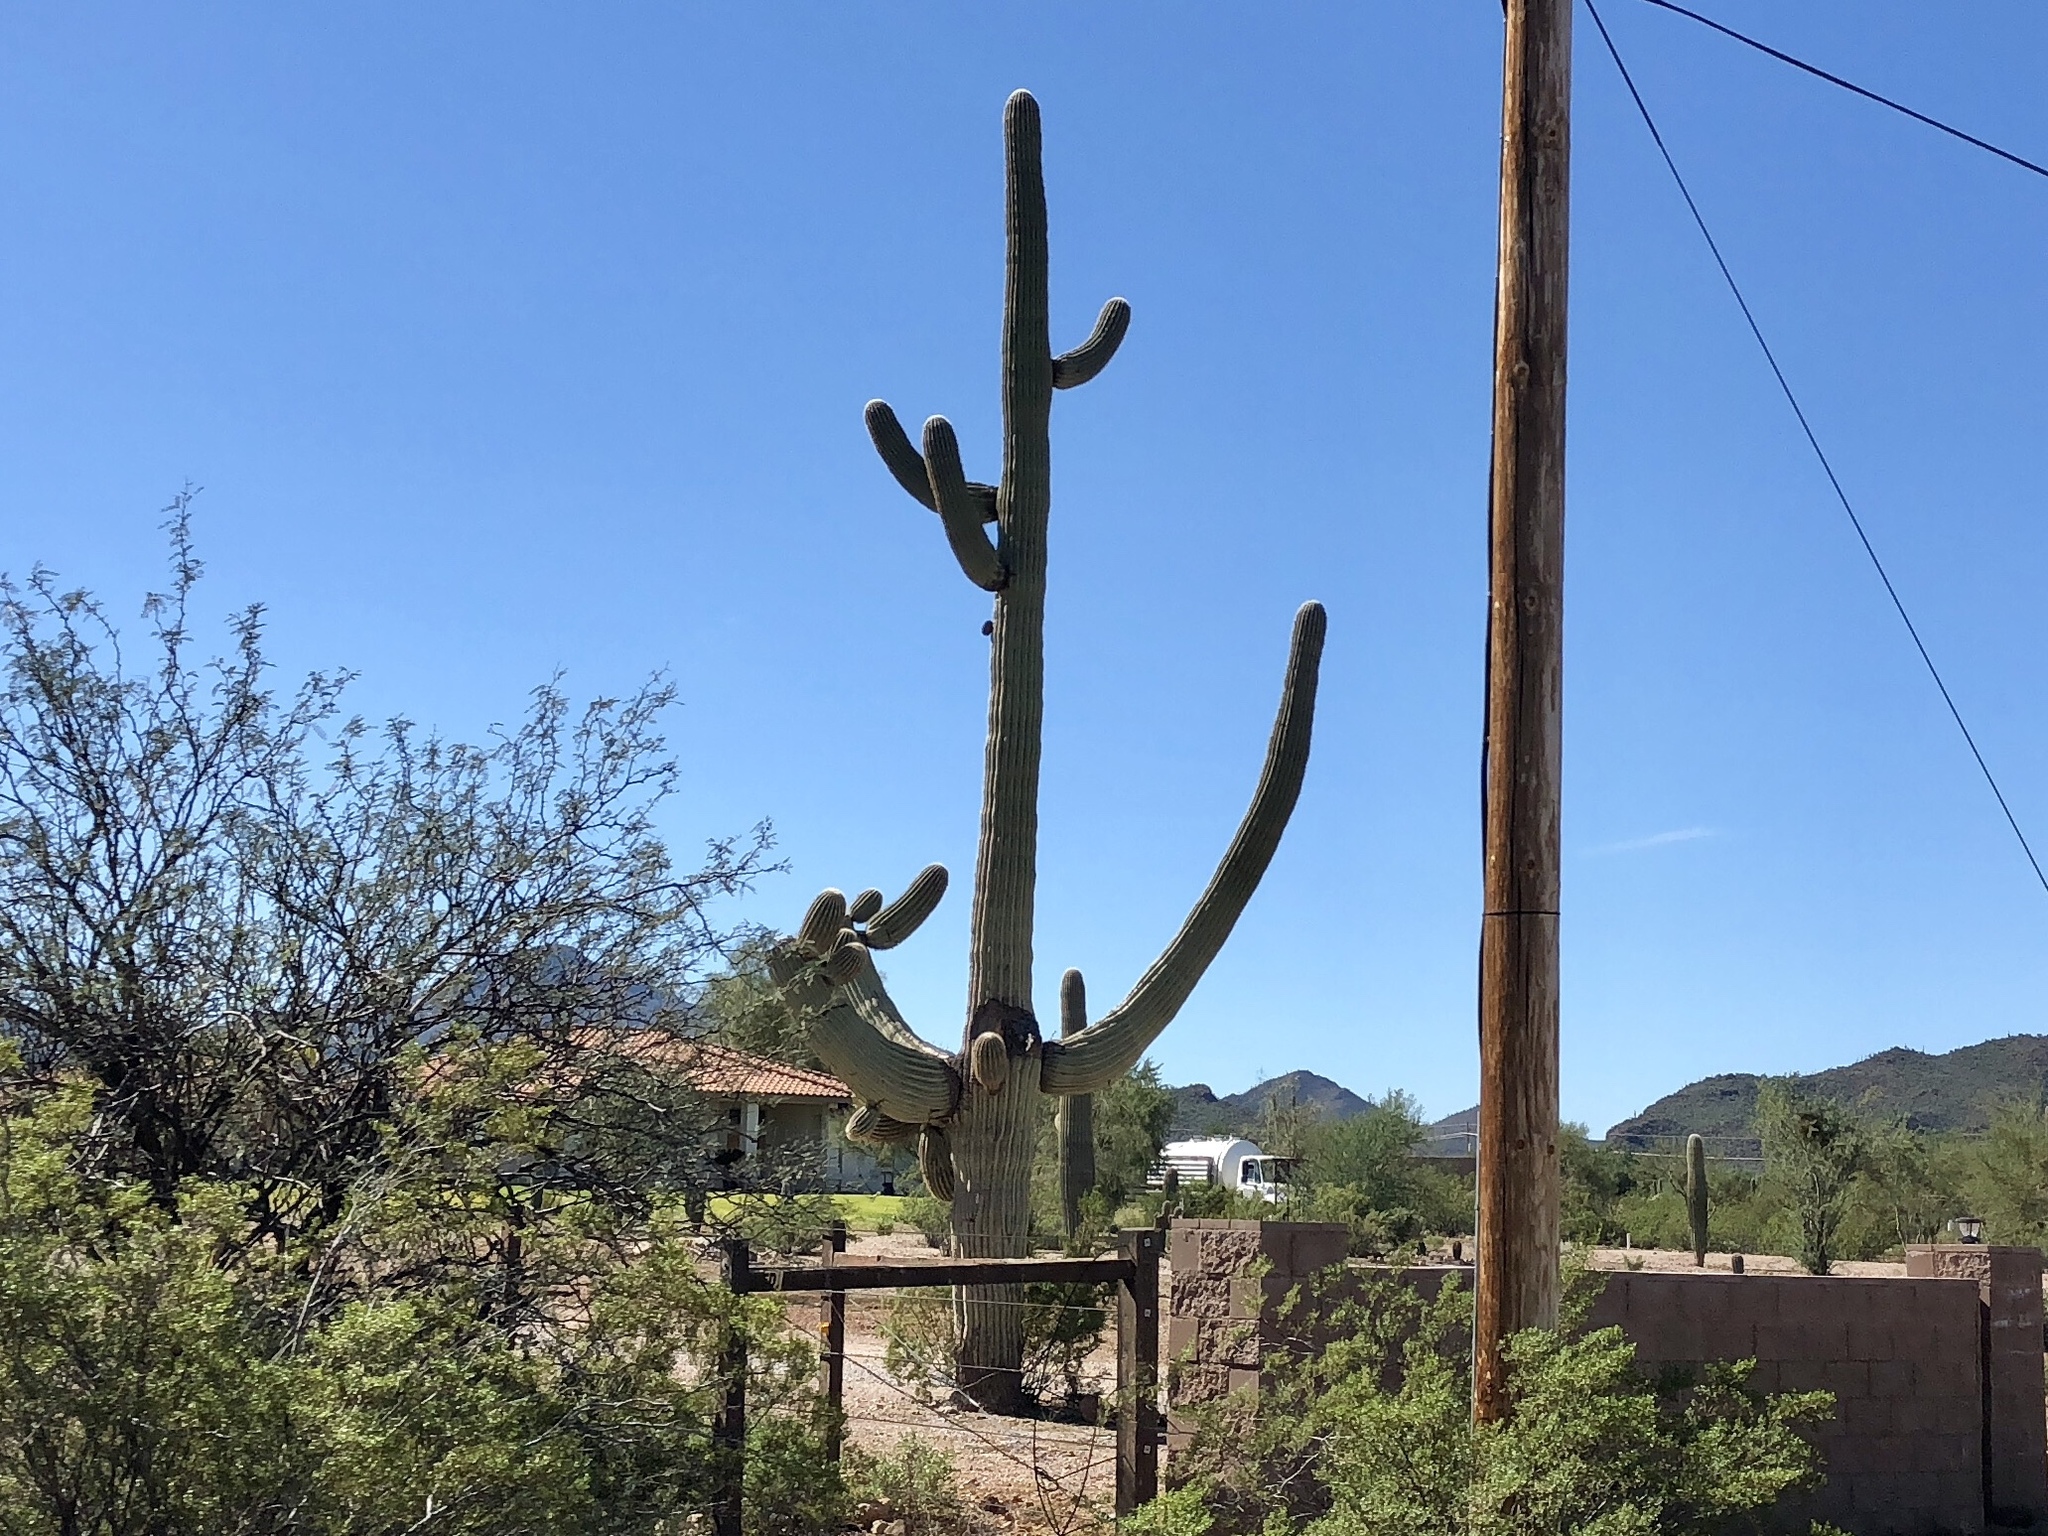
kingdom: Plantae
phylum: Tracheophyta
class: Magnoliopsida
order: Caryophyllales
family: Cactaceae
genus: Carnegiea
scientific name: Carnegiea gigantea
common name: Saguaro
